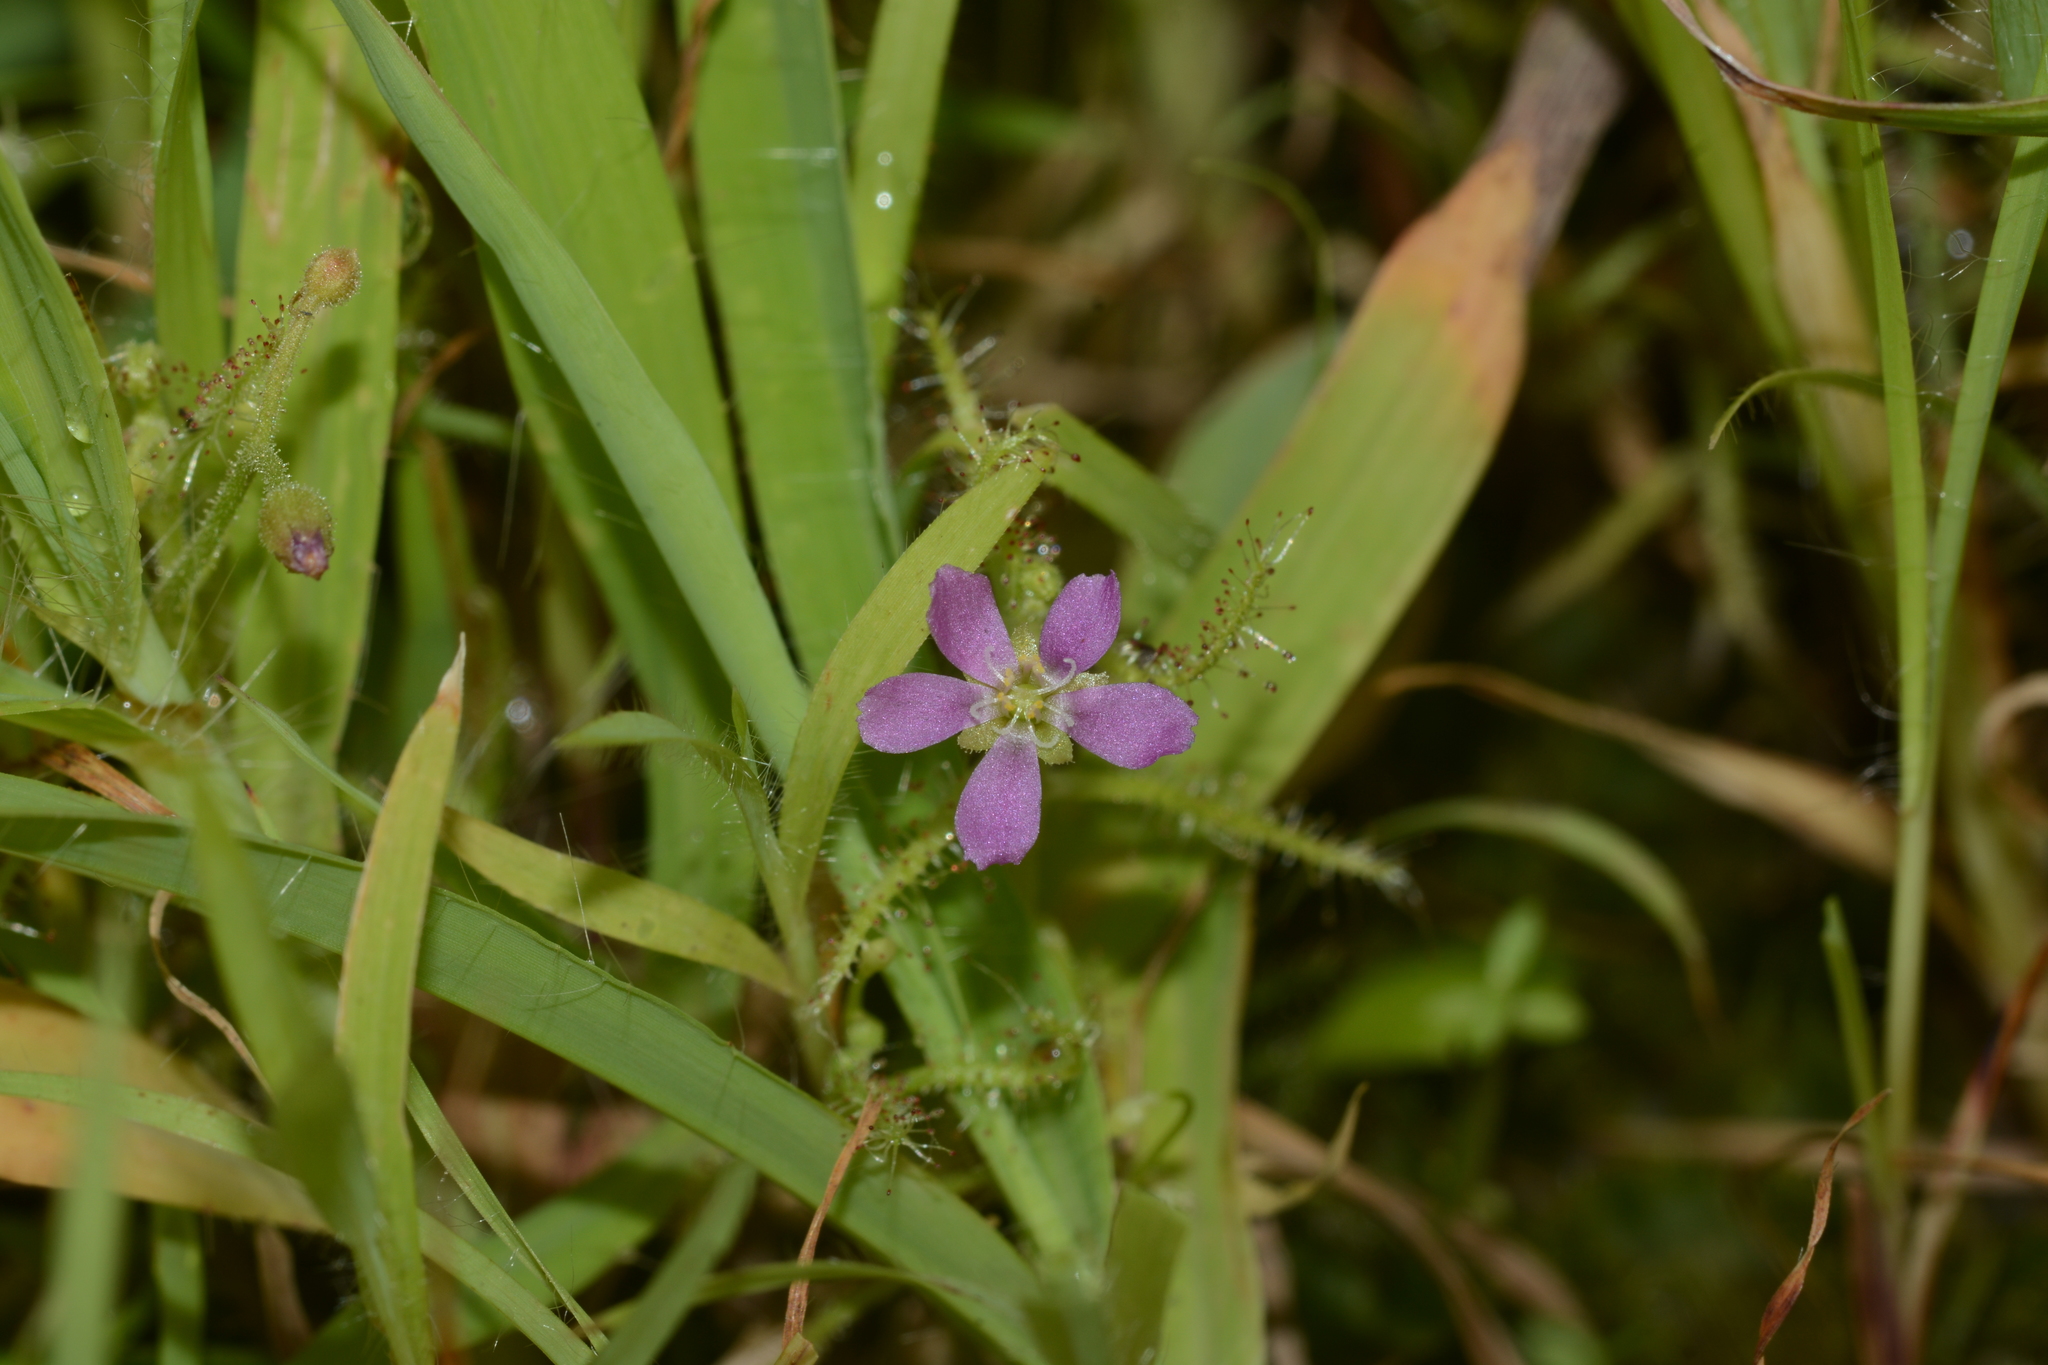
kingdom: Plantae
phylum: Tracheophyta
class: Magnoliopsida
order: Caryophyllales
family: Droseraceae
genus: Drosera
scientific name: Drosera indica
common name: Indian sundew
